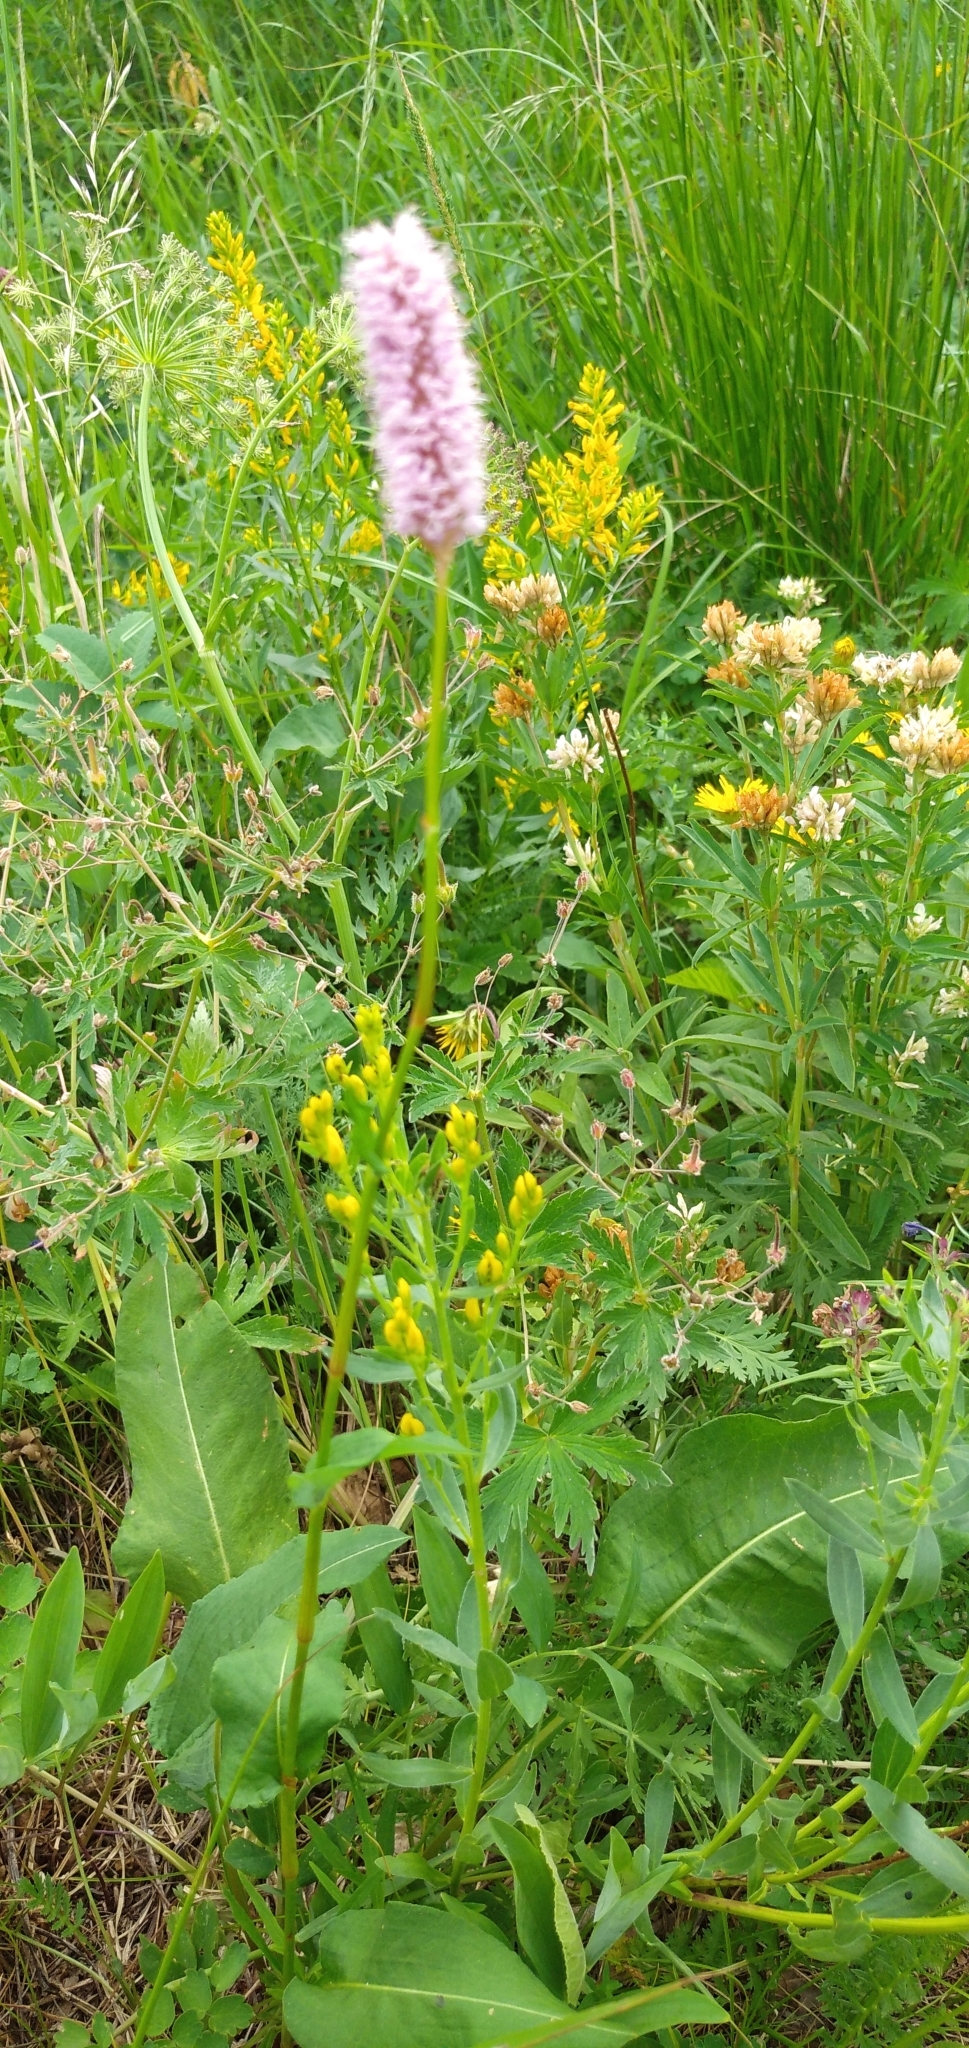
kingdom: Plantae
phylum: Tracheophyta
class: Magnoliopsida
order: Caryophyllales
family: Polygonaceae
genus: Bistorta
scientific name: Bistorta officinalis
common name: Common bistort
